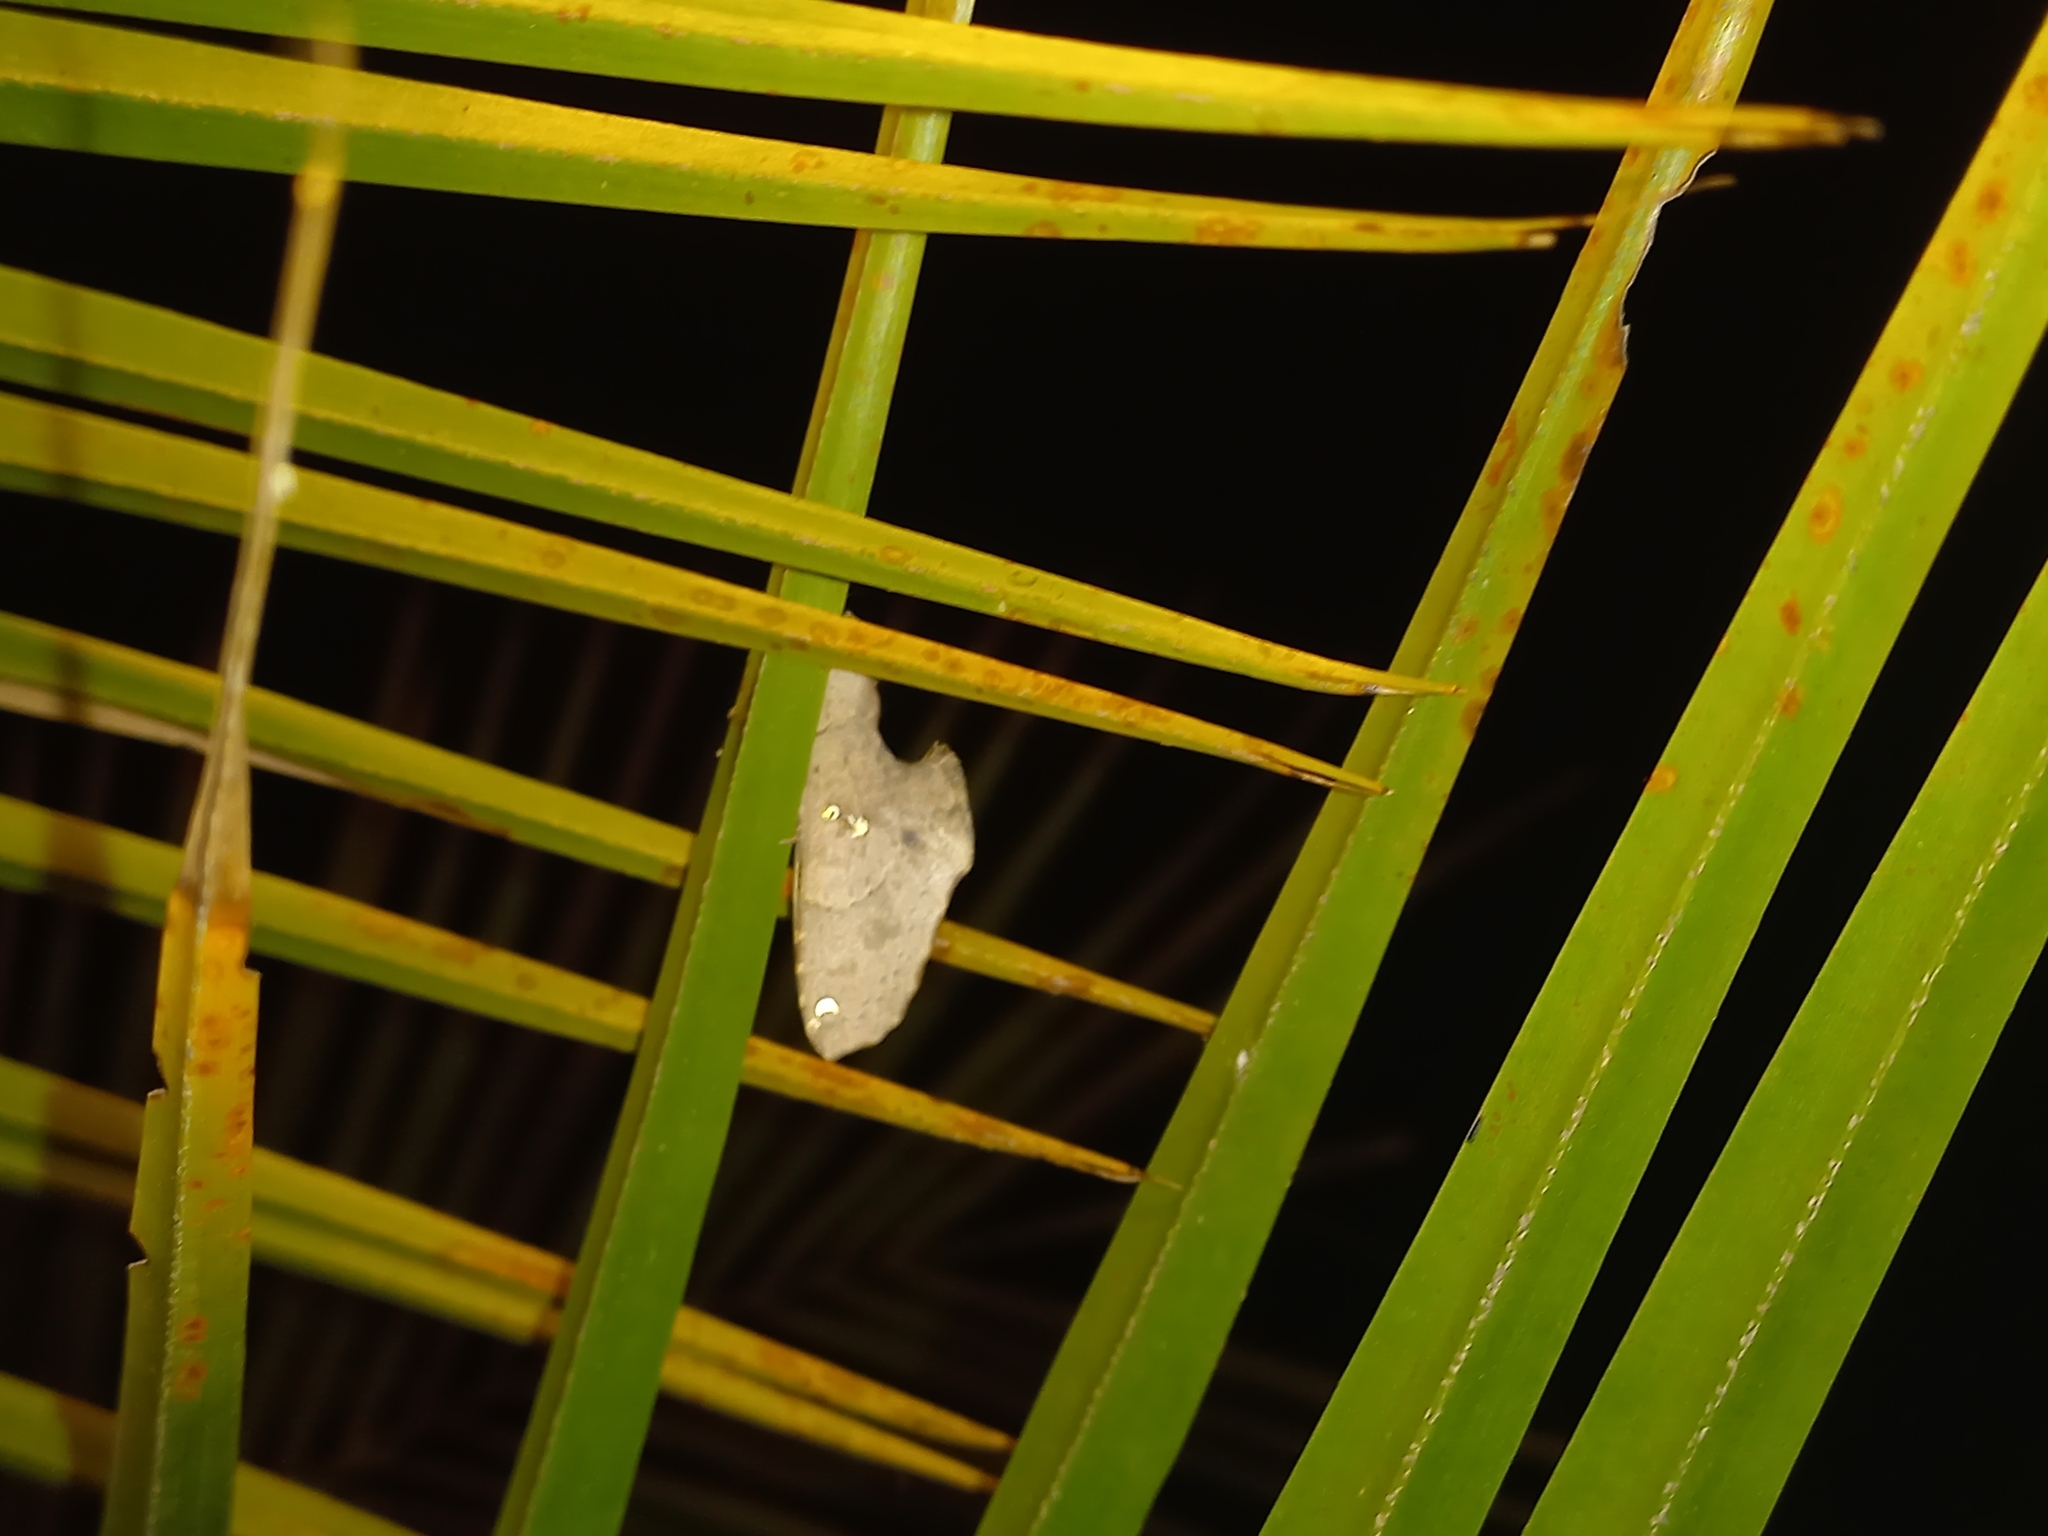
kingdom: Animalia
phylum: Arthropoda
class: Insecta
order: Lepidoptera
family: Notodontidae
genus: Rhapigia
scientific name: Rhapigia accipiter
